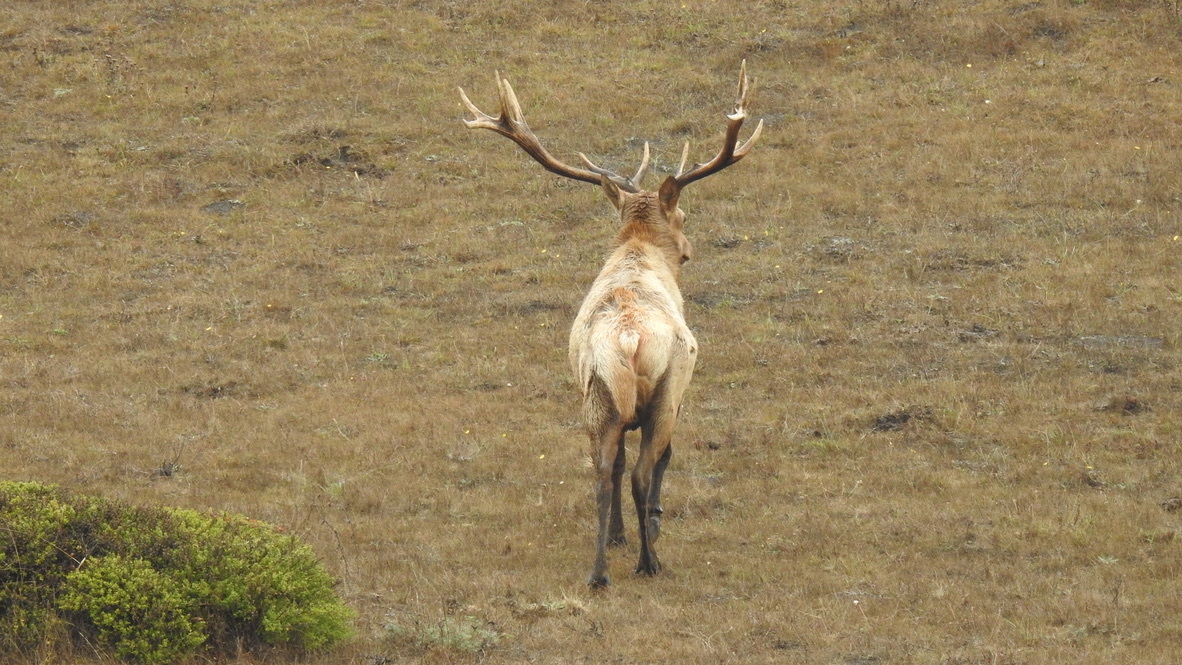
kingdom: Animalia
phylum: Chordata
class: Mammalia
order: Artiodactyla
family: Cervidae
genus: Cervus
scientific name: Cervus elaphus
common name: Red deer
